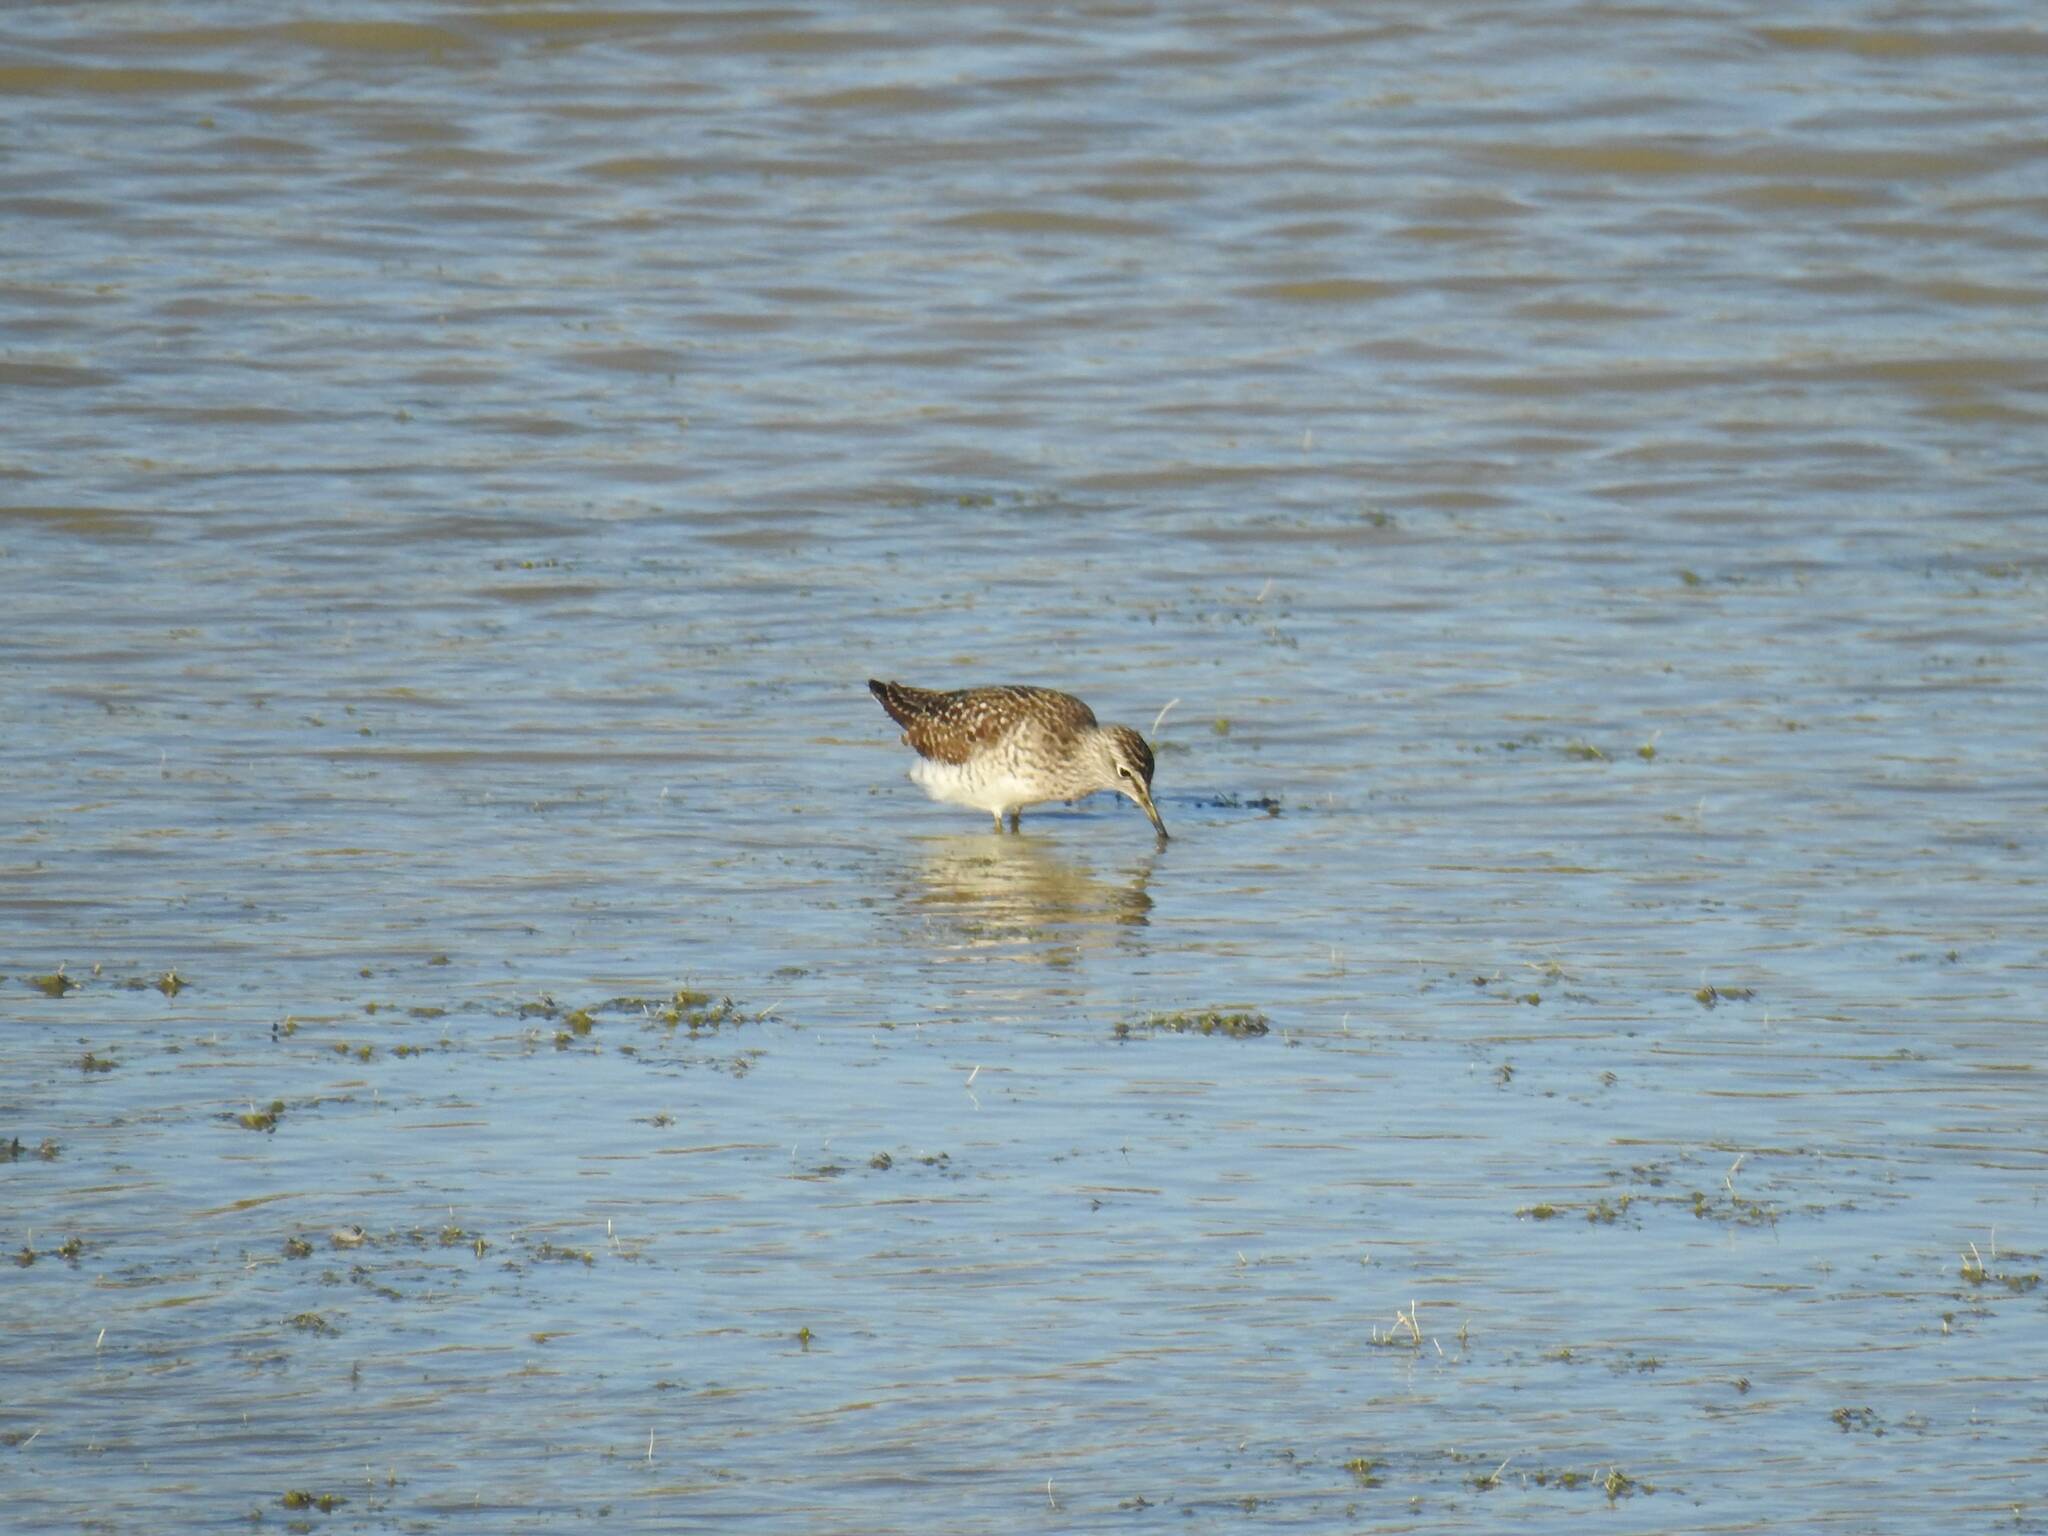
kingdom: Animalia
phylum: Chordata
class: Aves
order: Charadriiformes
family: Scolopacidae
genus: Tringa
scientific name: Tringa glareola
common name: Wood sandpiper
